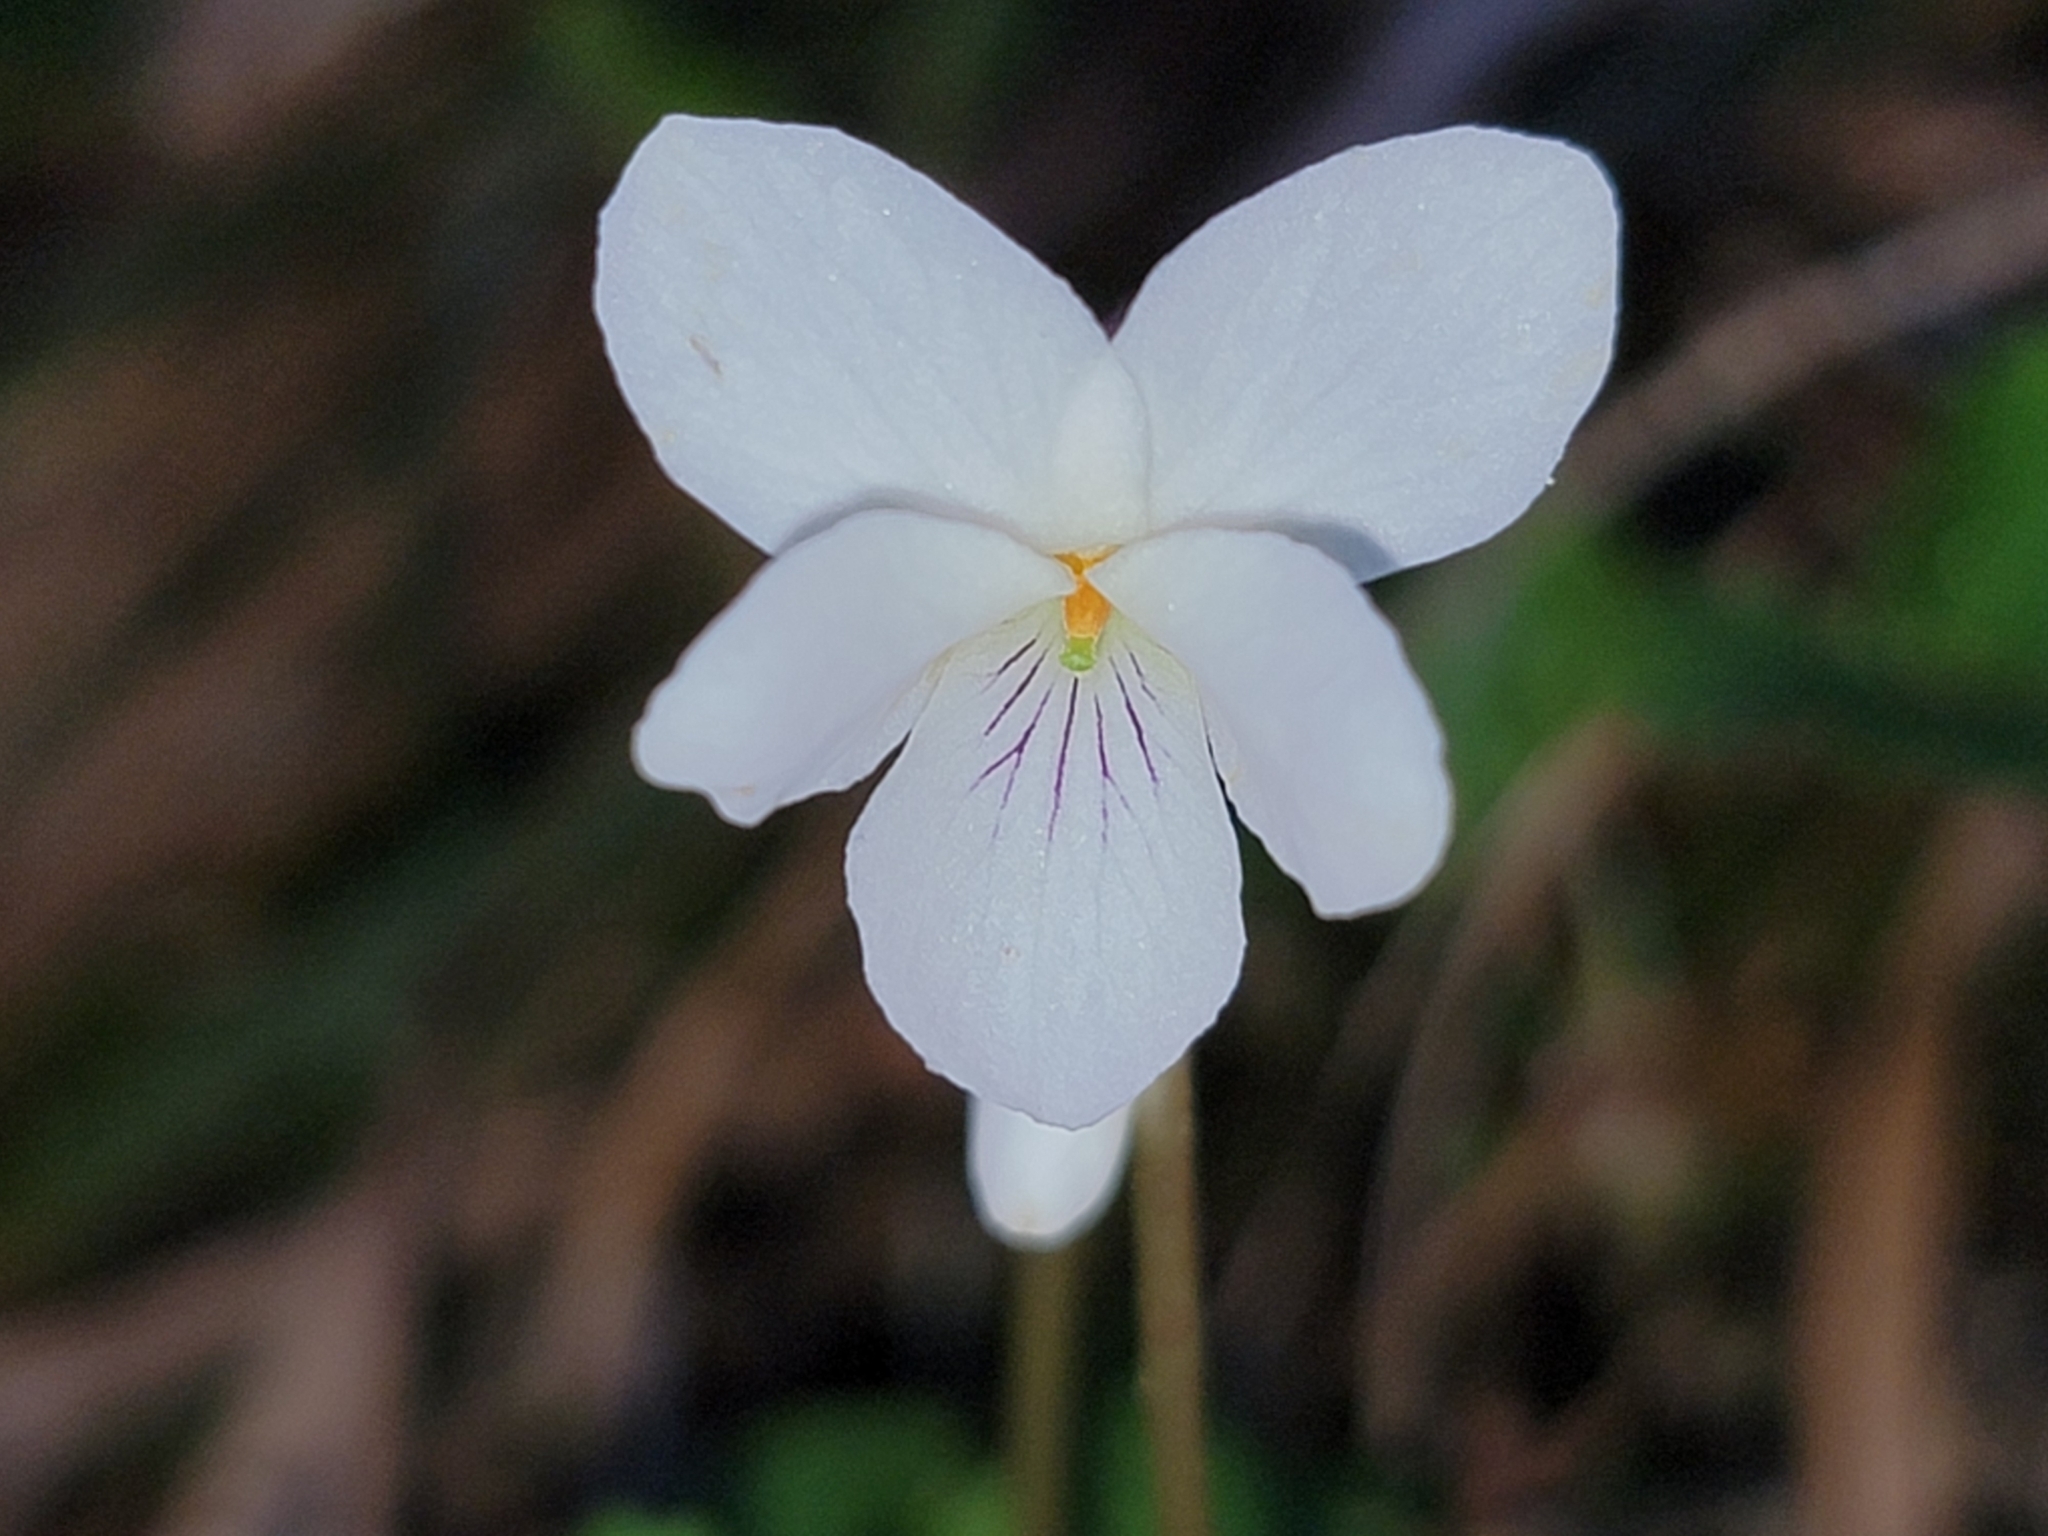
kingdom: Plantae
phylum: Tracheophyta
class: Magnoliopsida
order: Malpighiales
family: Violaceae
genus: Viola
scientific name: Viola blanda
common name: Sweet white violet
